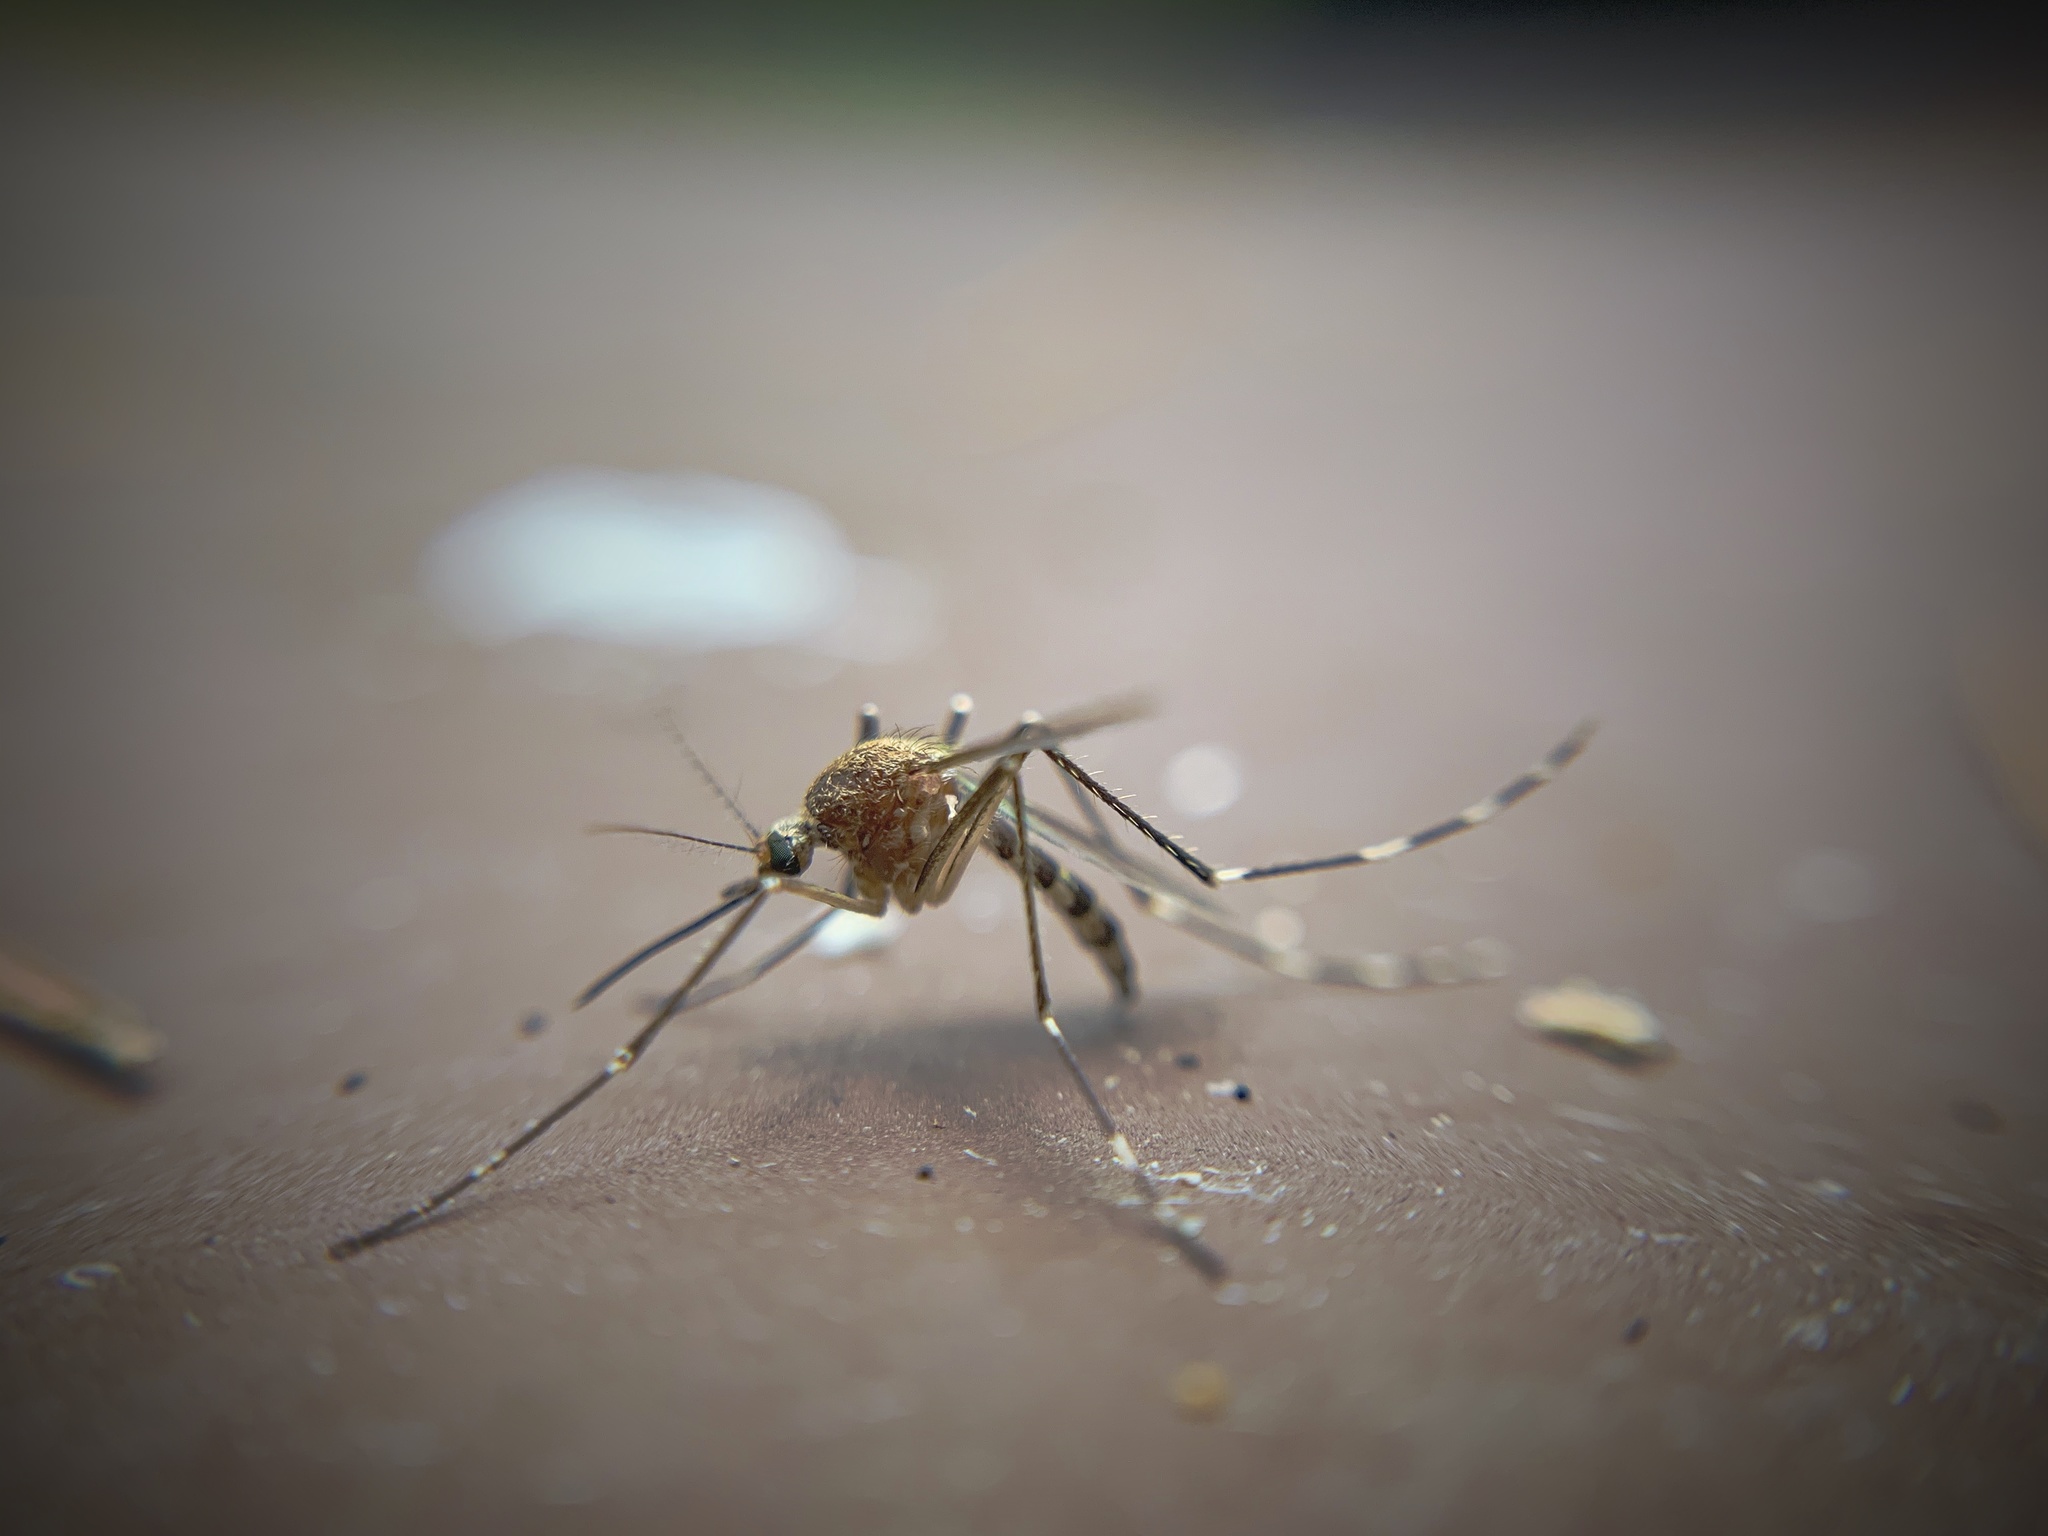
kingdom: Animalia
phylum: Arthropoda
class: Insecta
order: Diptera
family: Culicidae
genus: Aedes
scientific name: Aedes canadensis
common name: Woodland pool mosquito
